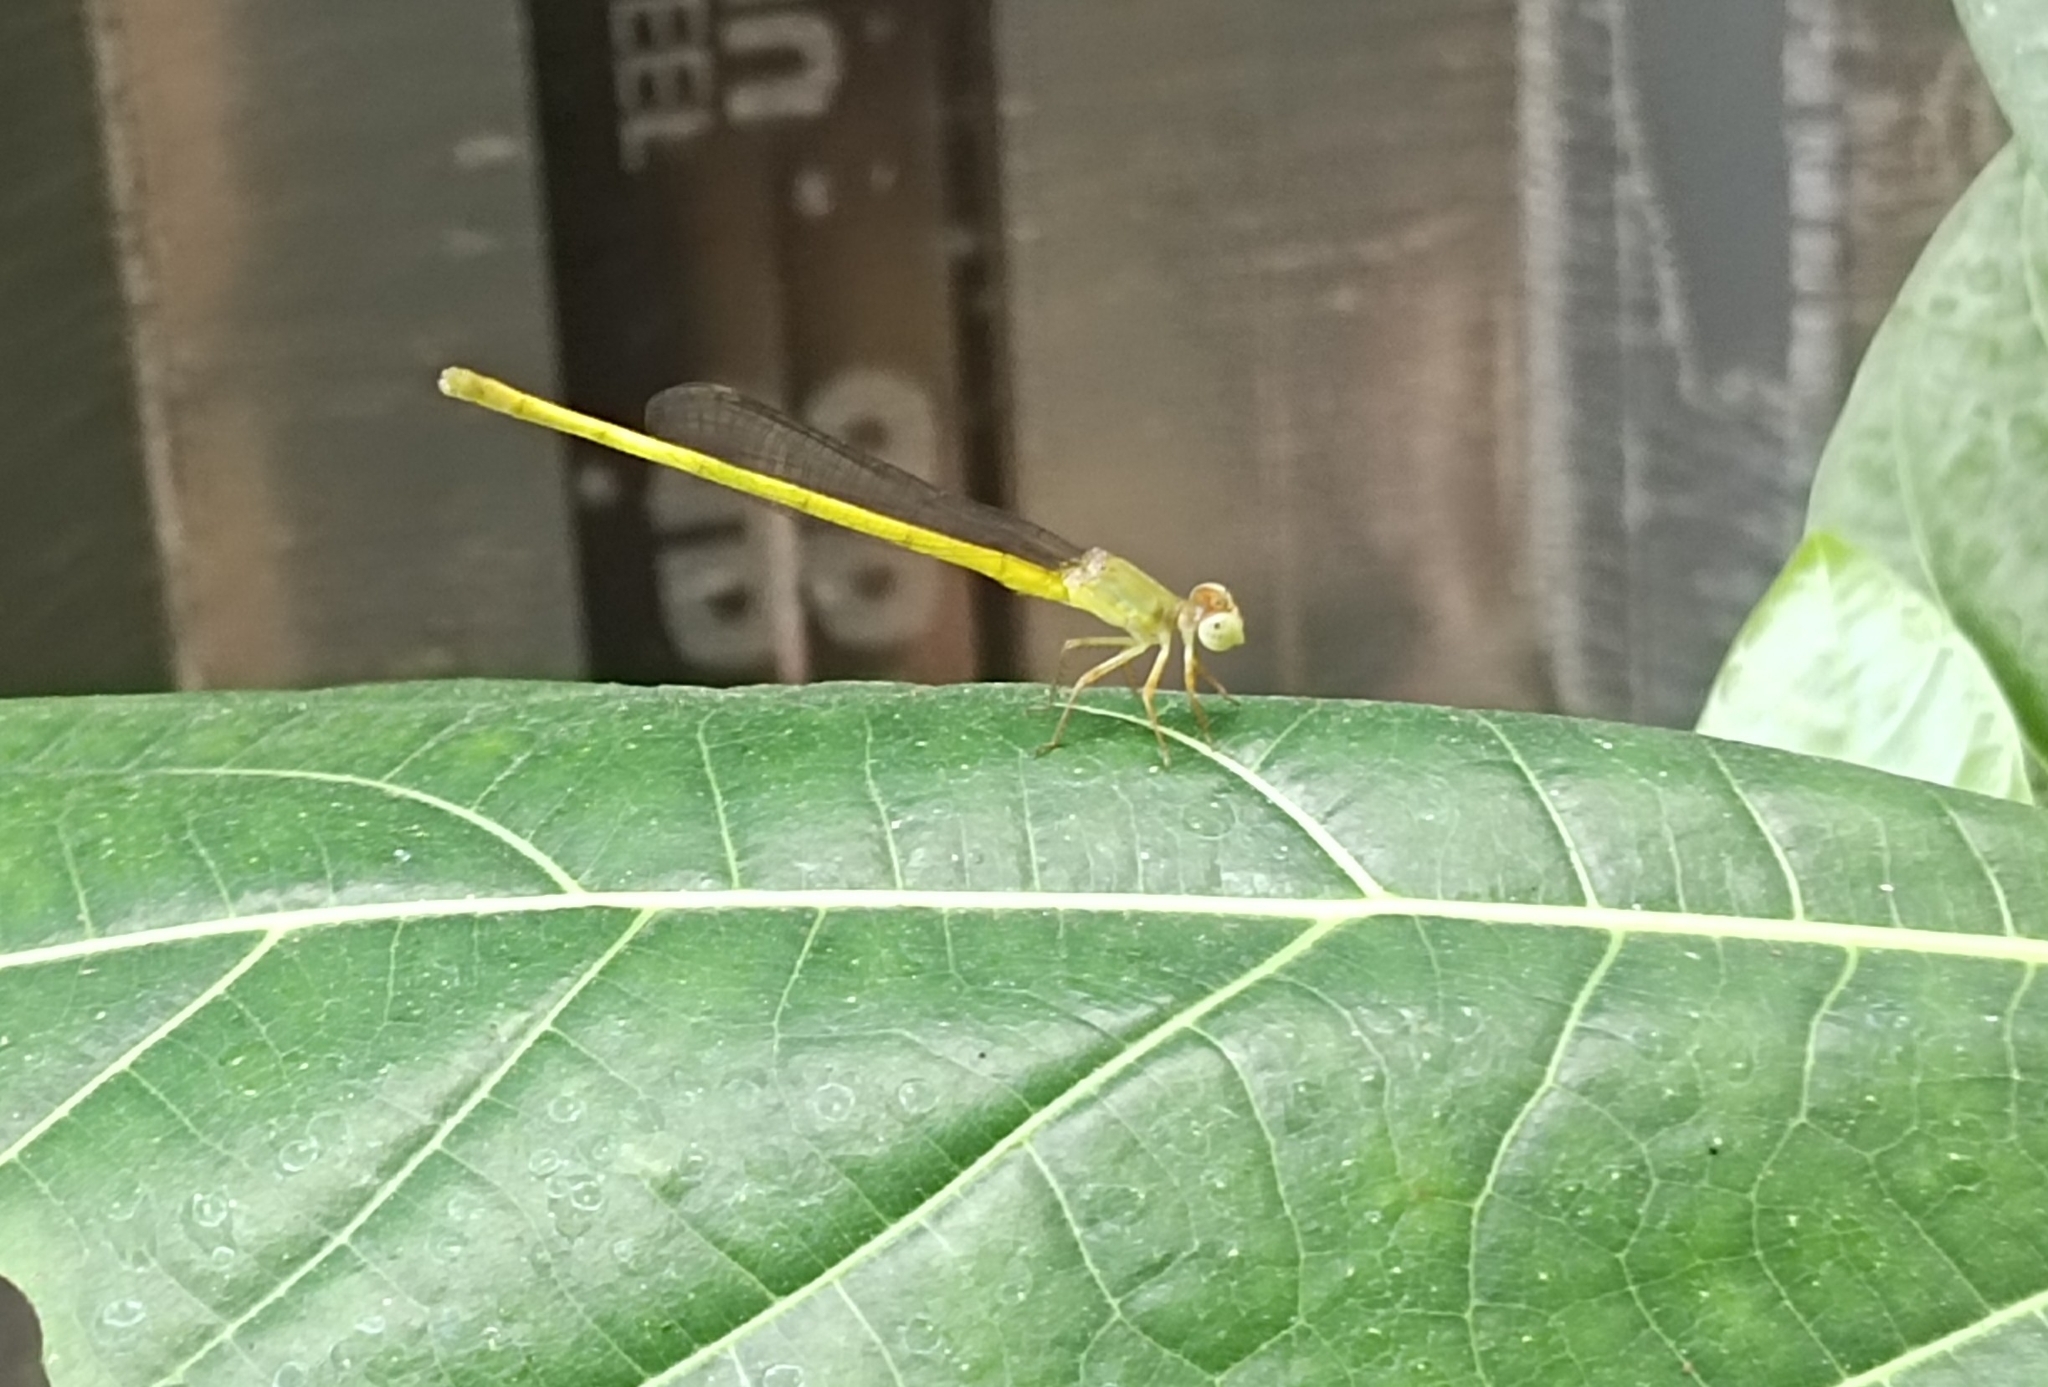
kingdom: Animalia
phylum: Arthropoda
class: Insecta
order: Odonata
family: Coenagrionidae
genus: Ceriagrion
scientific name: Ceriagrion coromandelianum
